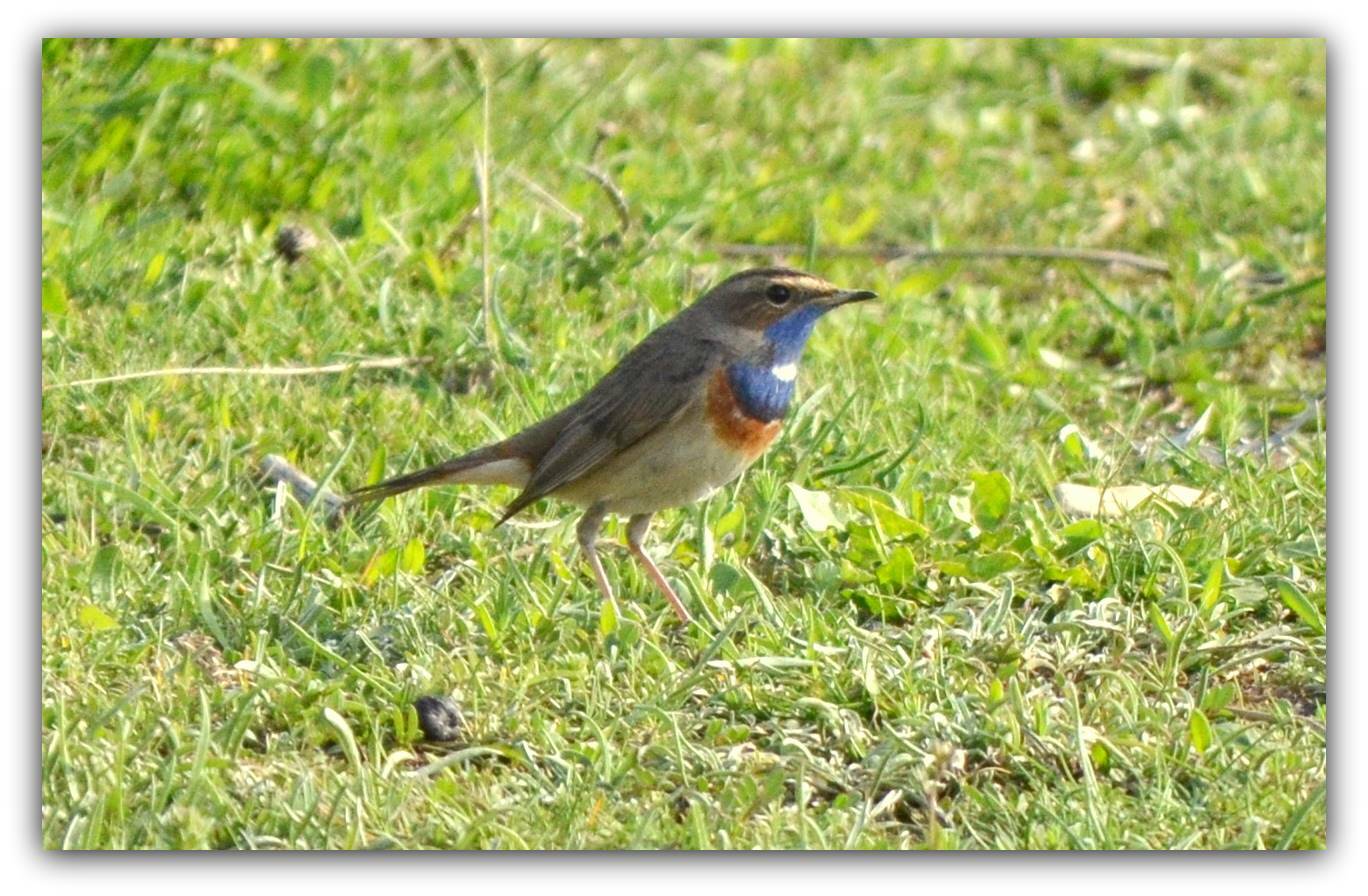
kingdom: Animalia
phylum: Chordata
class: Aves
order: Passeriformes
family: Muscicapidae
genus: Luscinia
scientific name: Luscinia svecica
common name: Bluethroat
